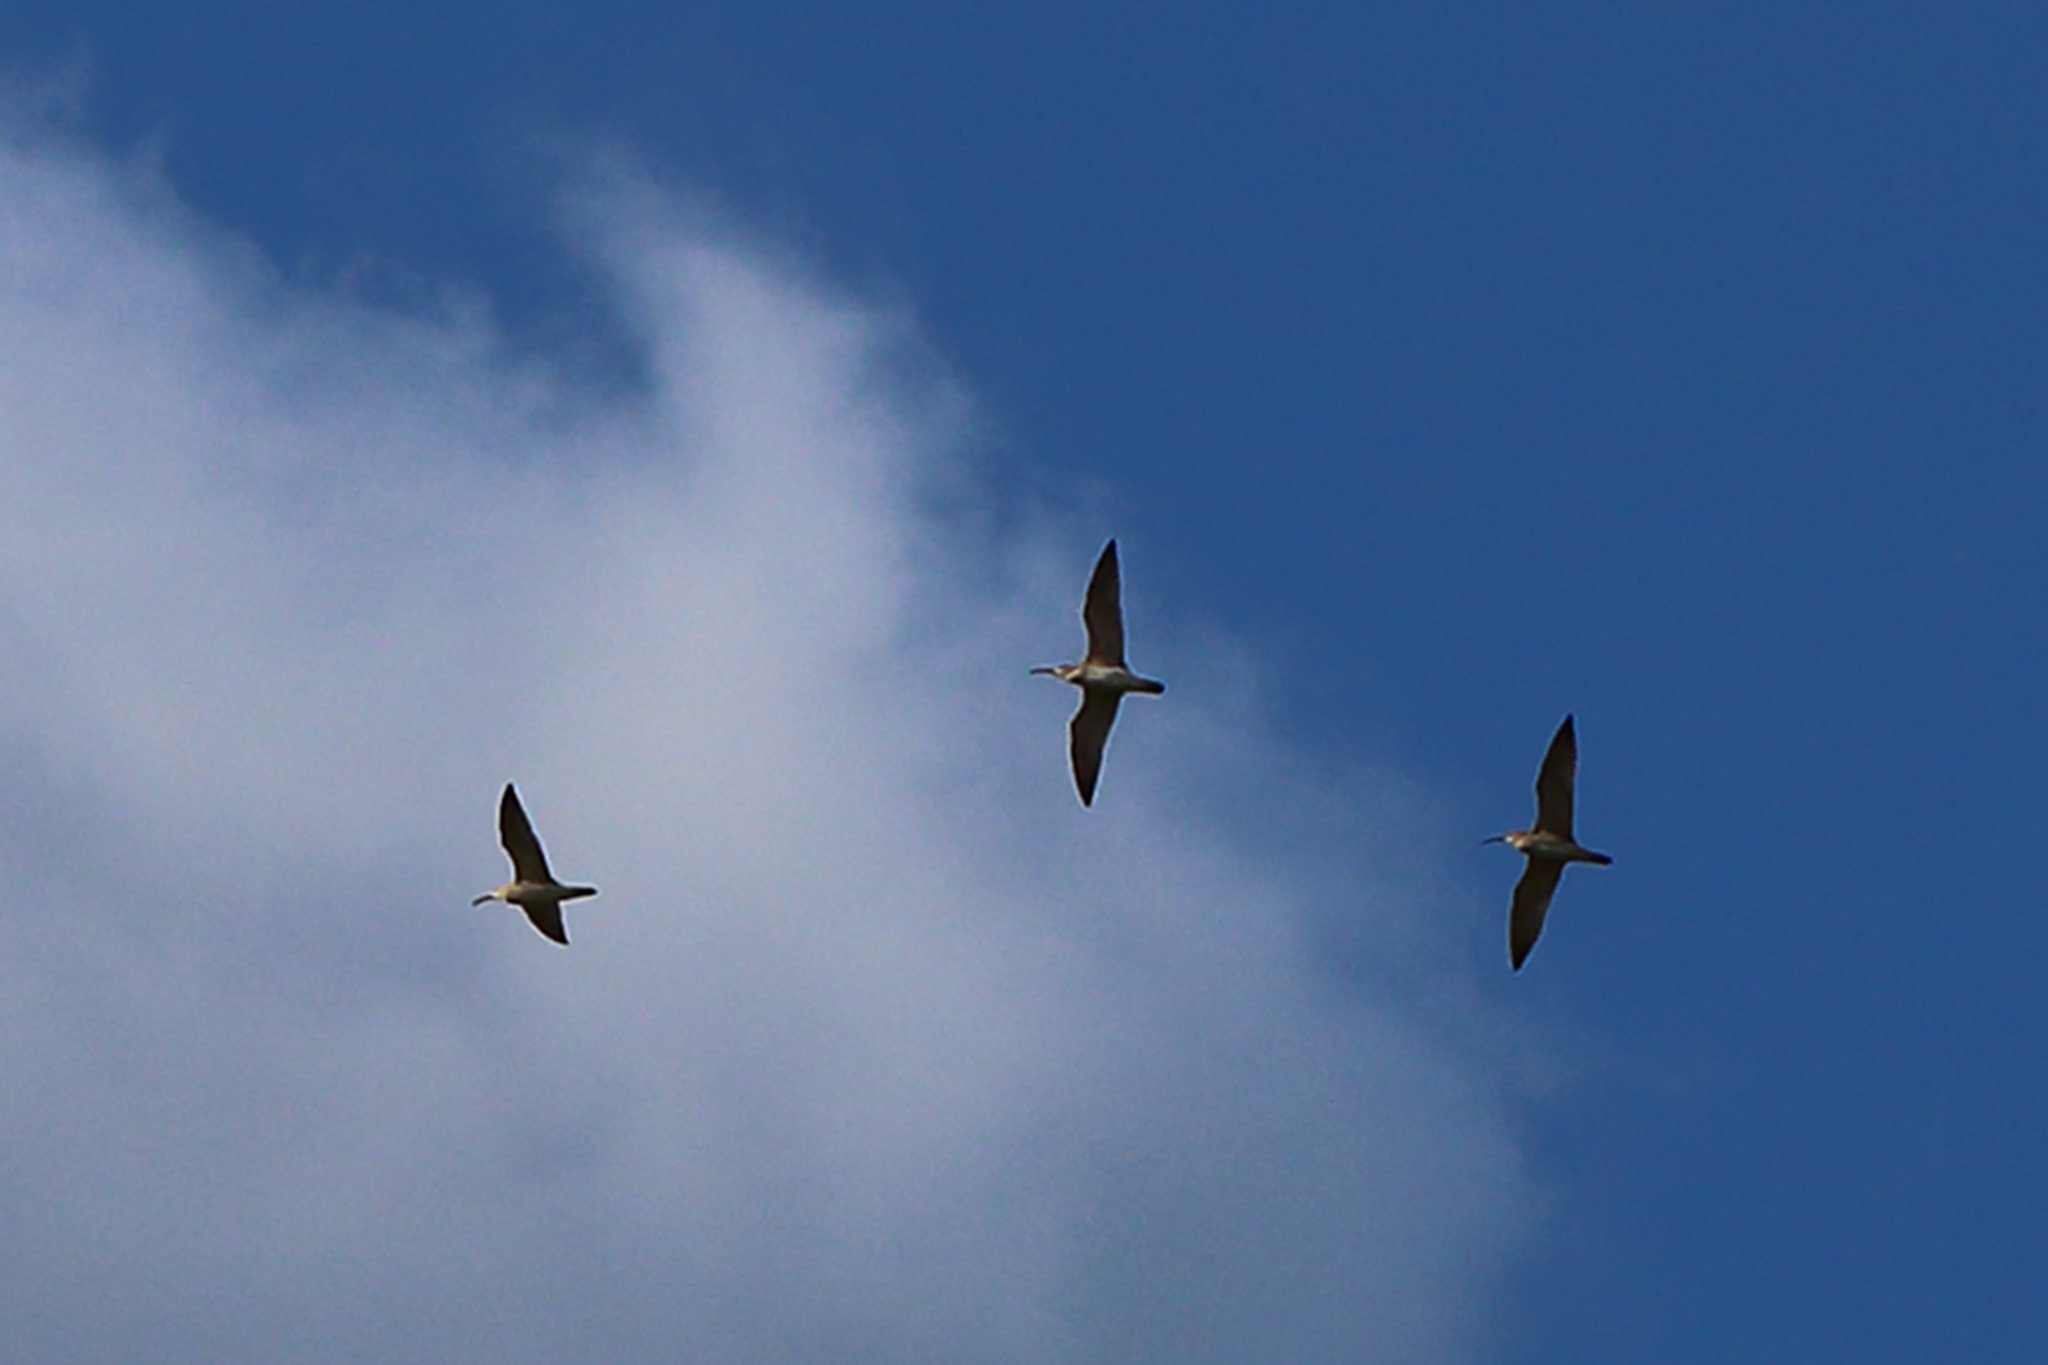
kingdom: Animalia
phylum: Chordata
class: Aves
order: Charadriiformes
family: Scolopacidae
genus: Numenius
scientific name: Numenius phaeopus
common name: Whimbrel
